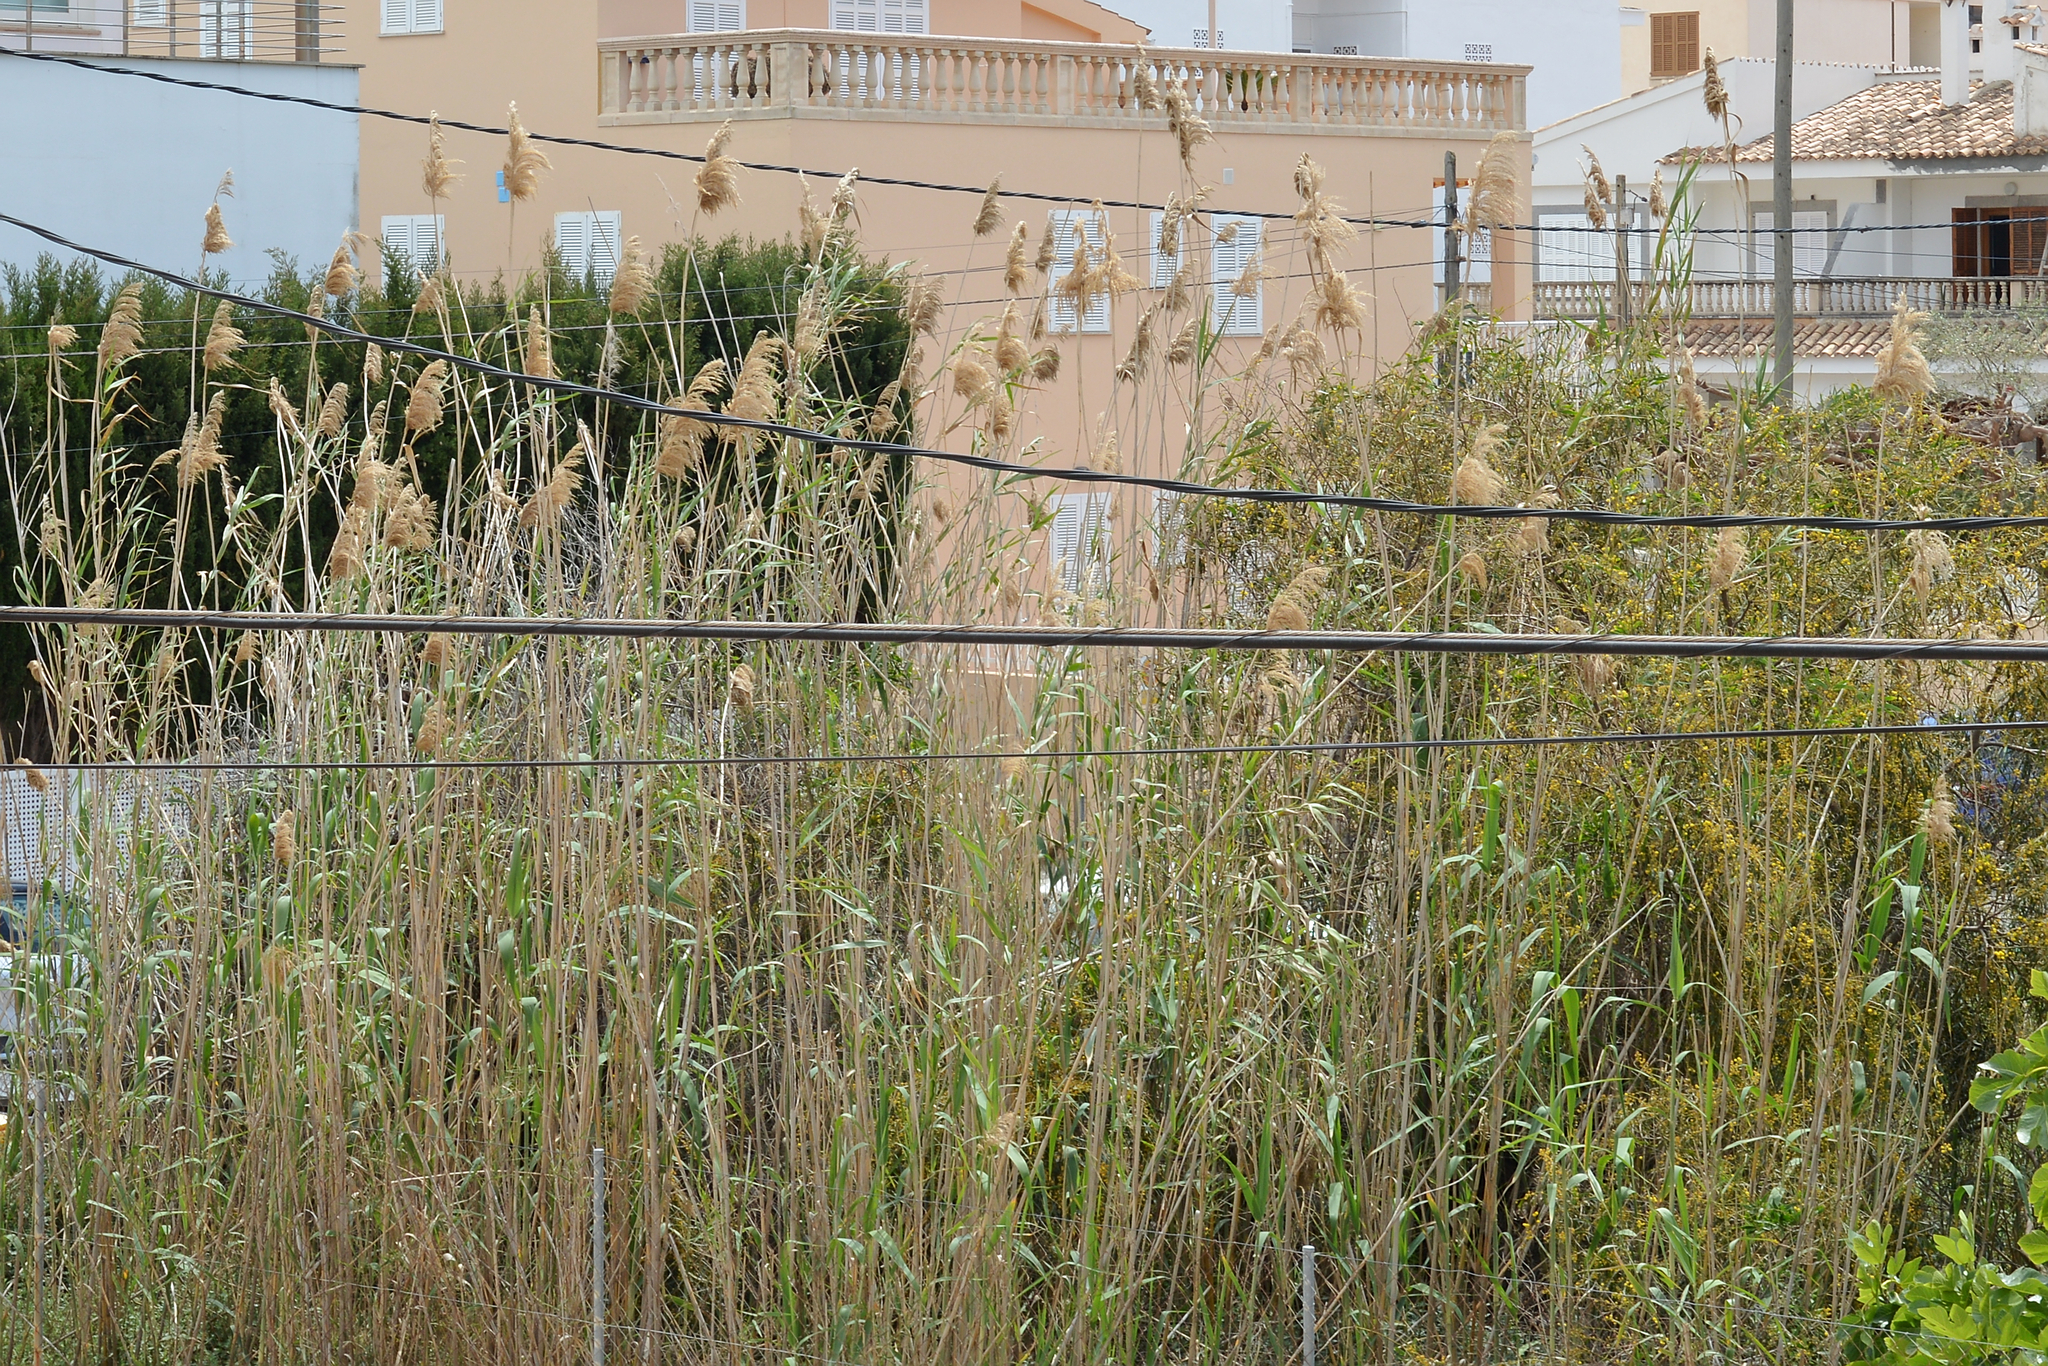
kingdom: Plantae
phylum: Tracheophyta
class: Liliopsida
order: Poales
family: Poaceae
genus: Phragmites
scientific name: Phragmites australis
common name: Common reed
